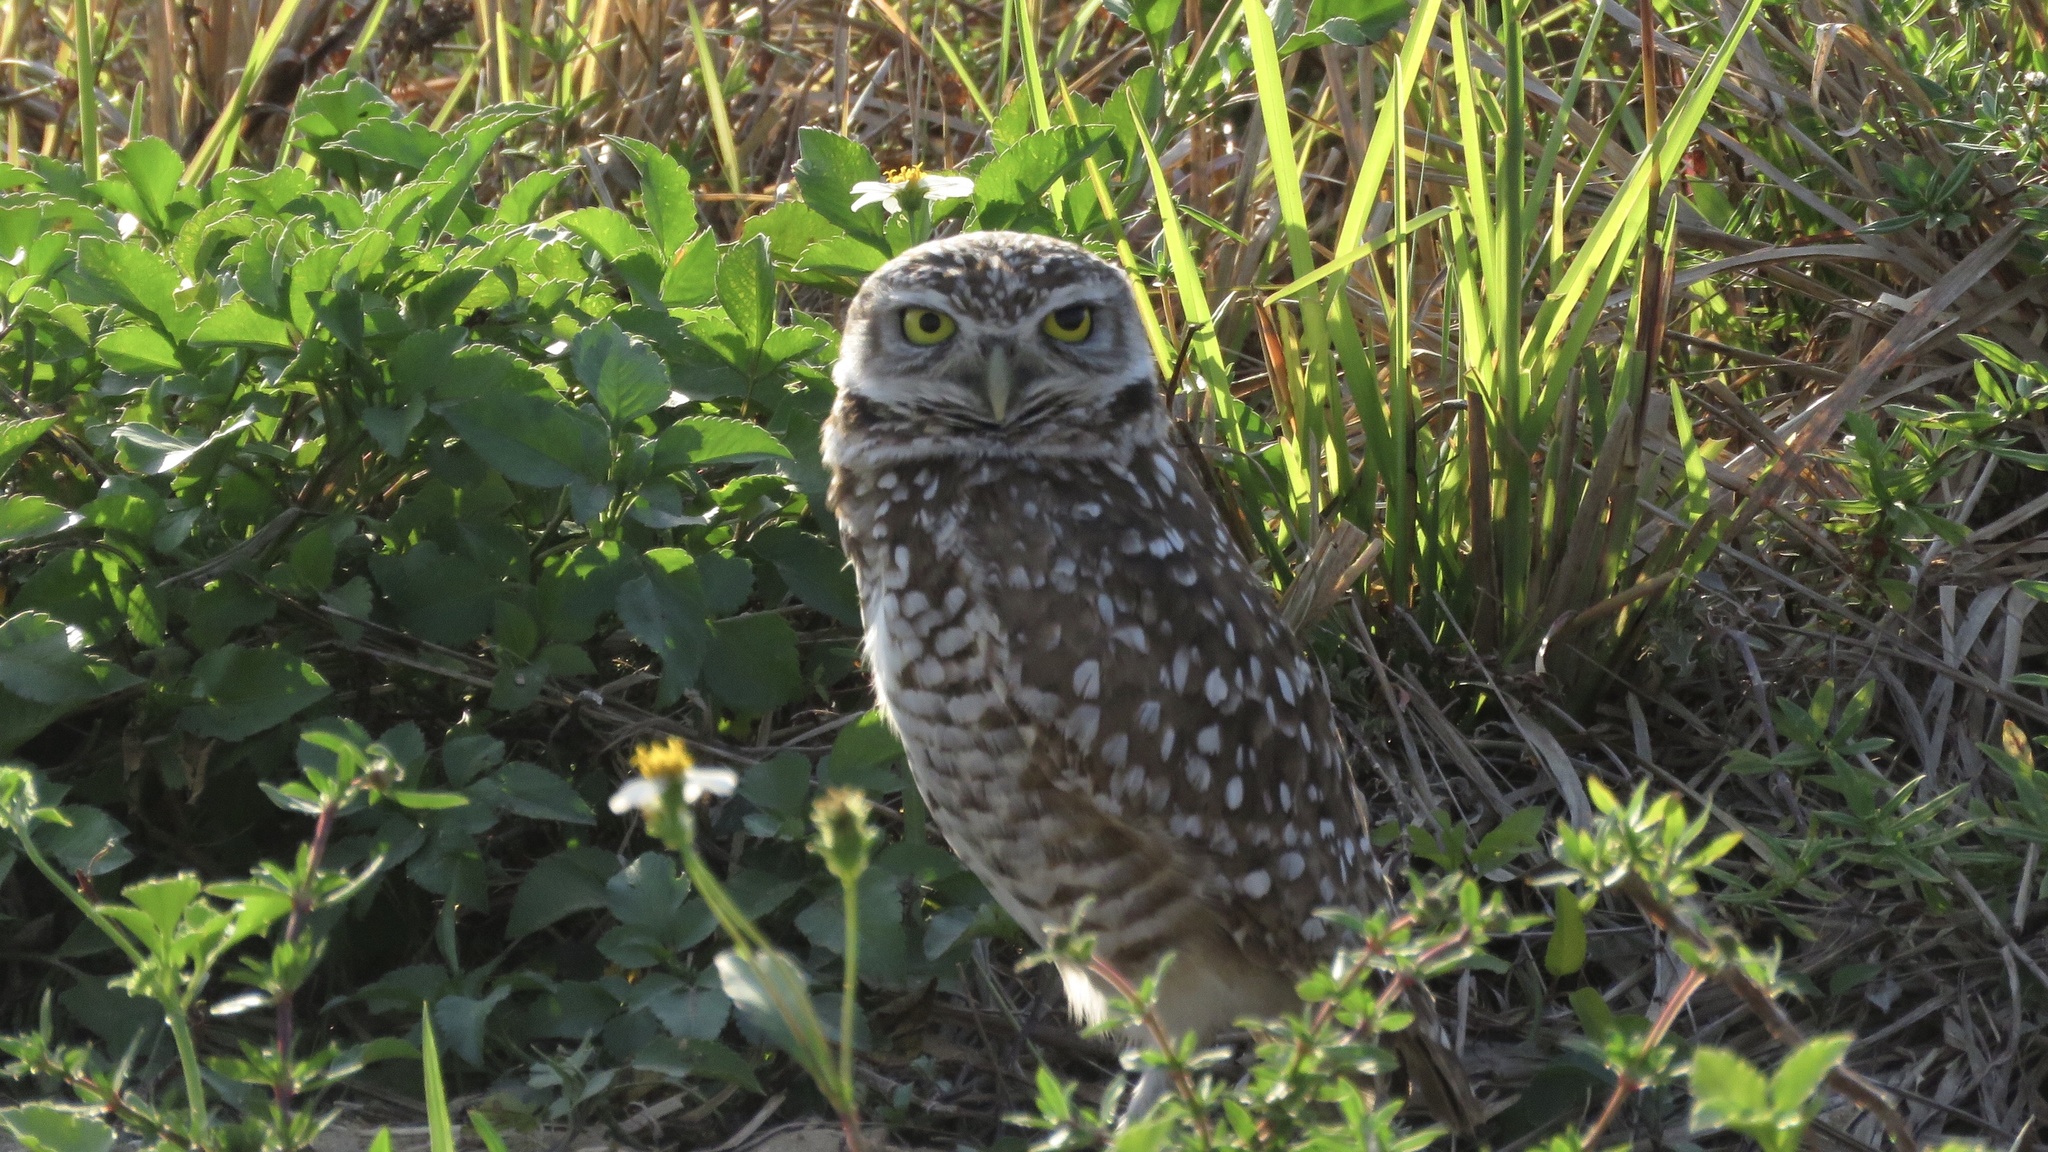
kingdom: Animalia
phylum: Chordata
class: Aves
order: Strigiformes
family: Strigidae
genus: Athene
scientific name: Athene cunicularia
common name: Burrowing owl
